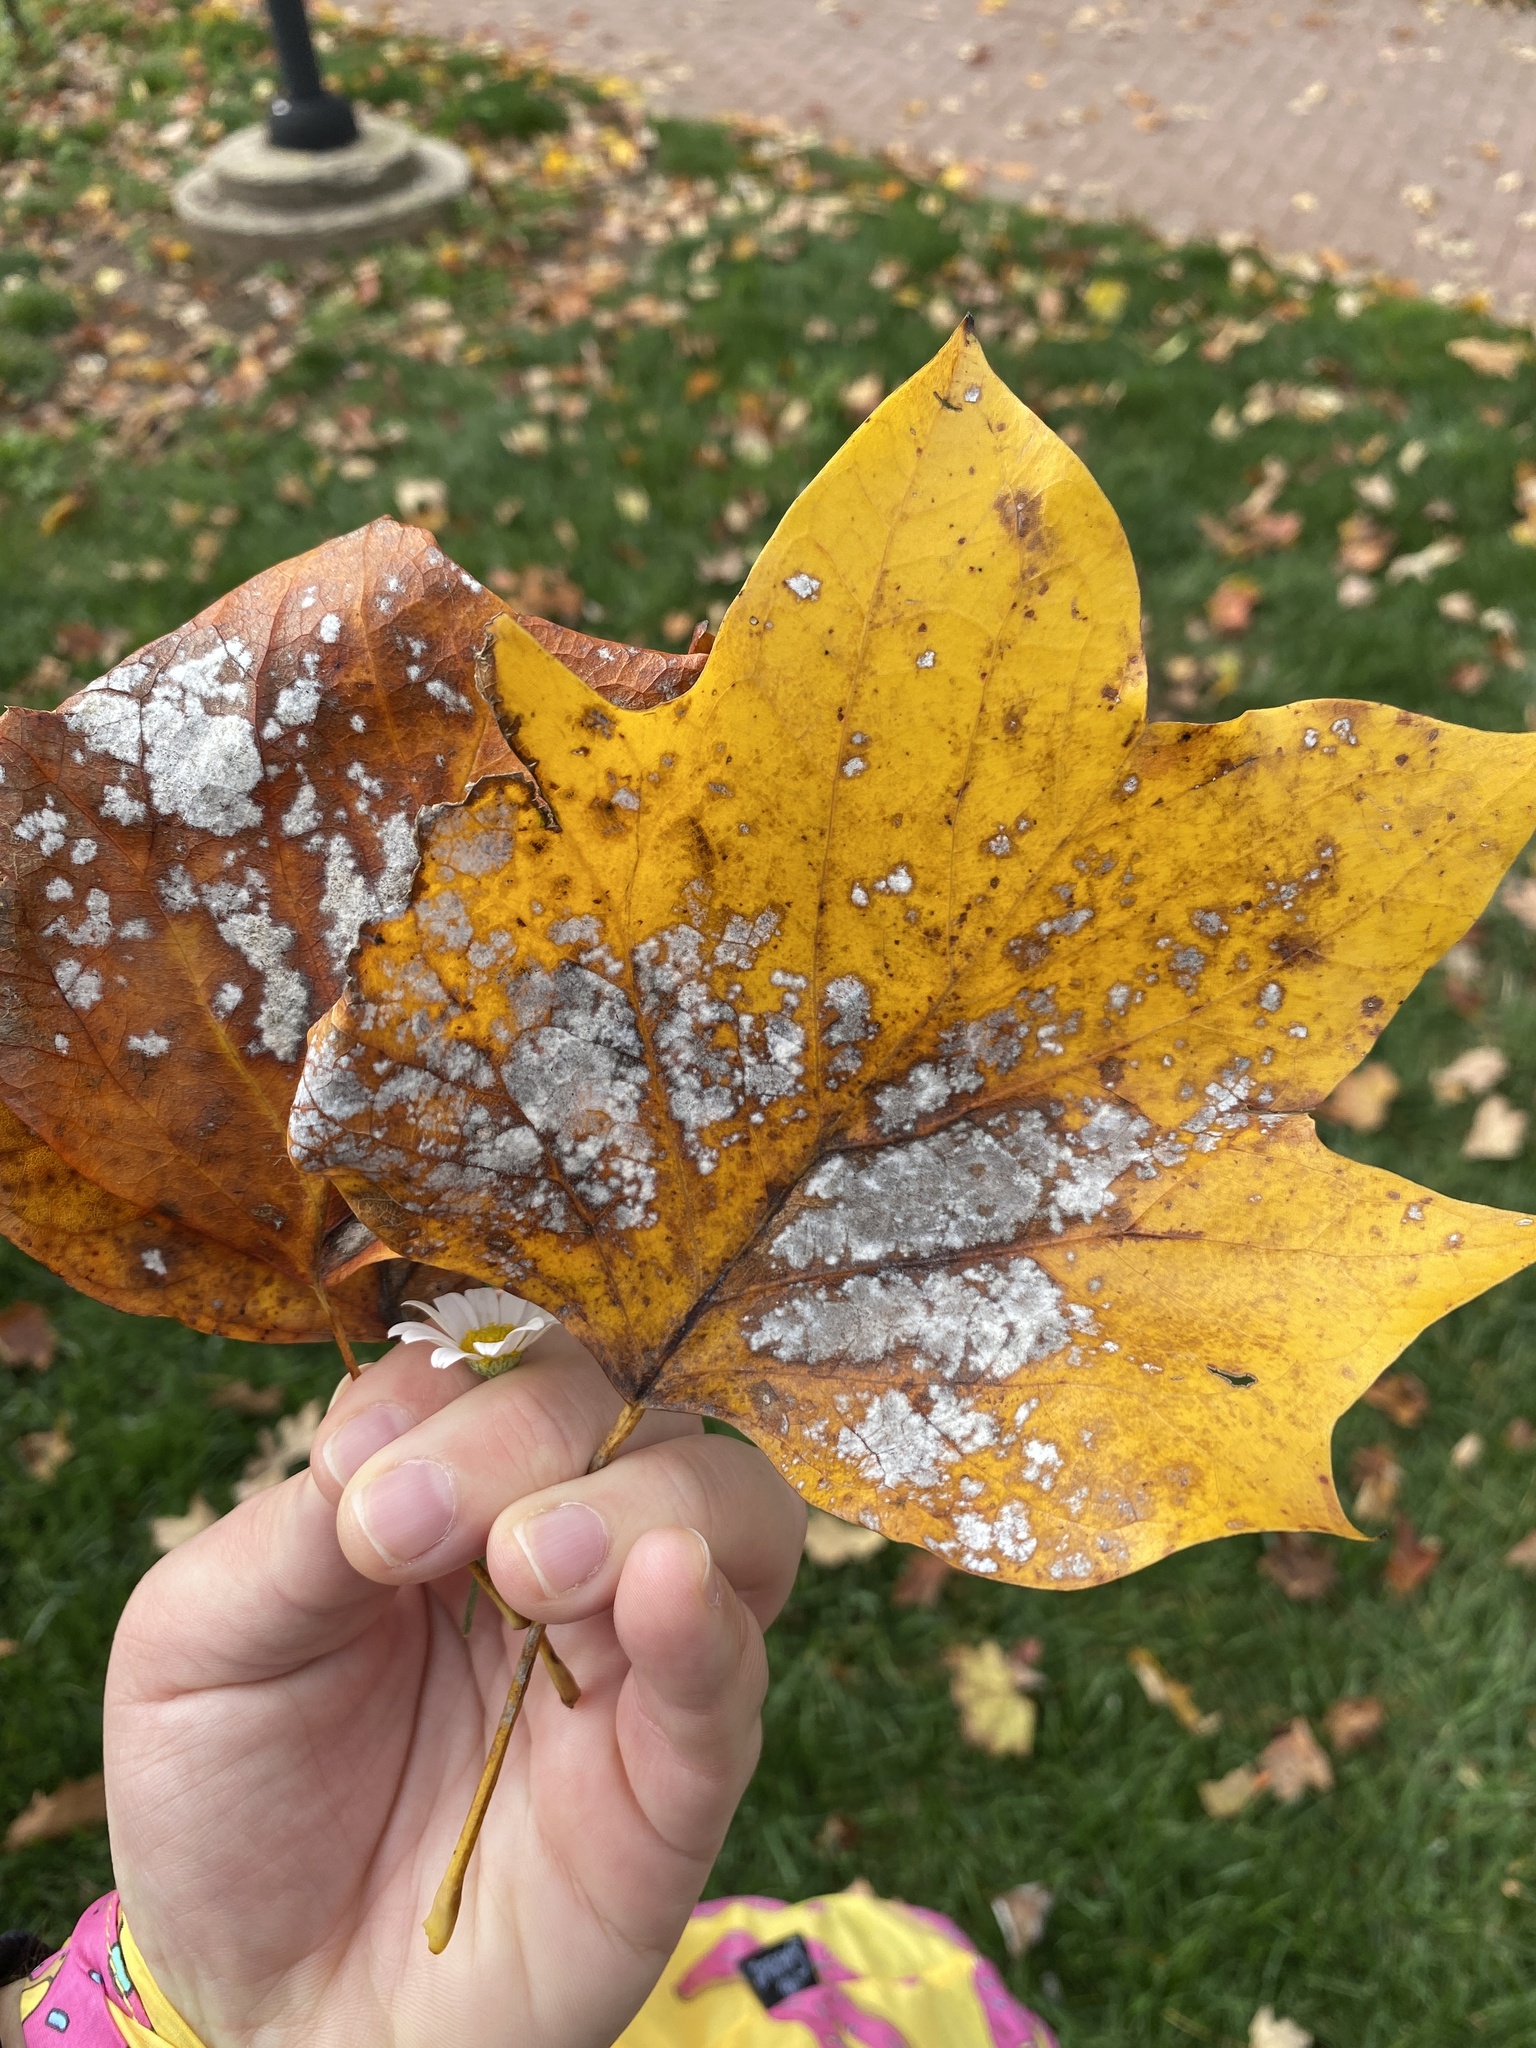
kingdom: Fungi
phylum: Ascomycota
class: Leotiomycetes
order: Helotiales
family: Erysiphaceae
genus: Erysiphe
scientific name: Erysiphe liriodendri
